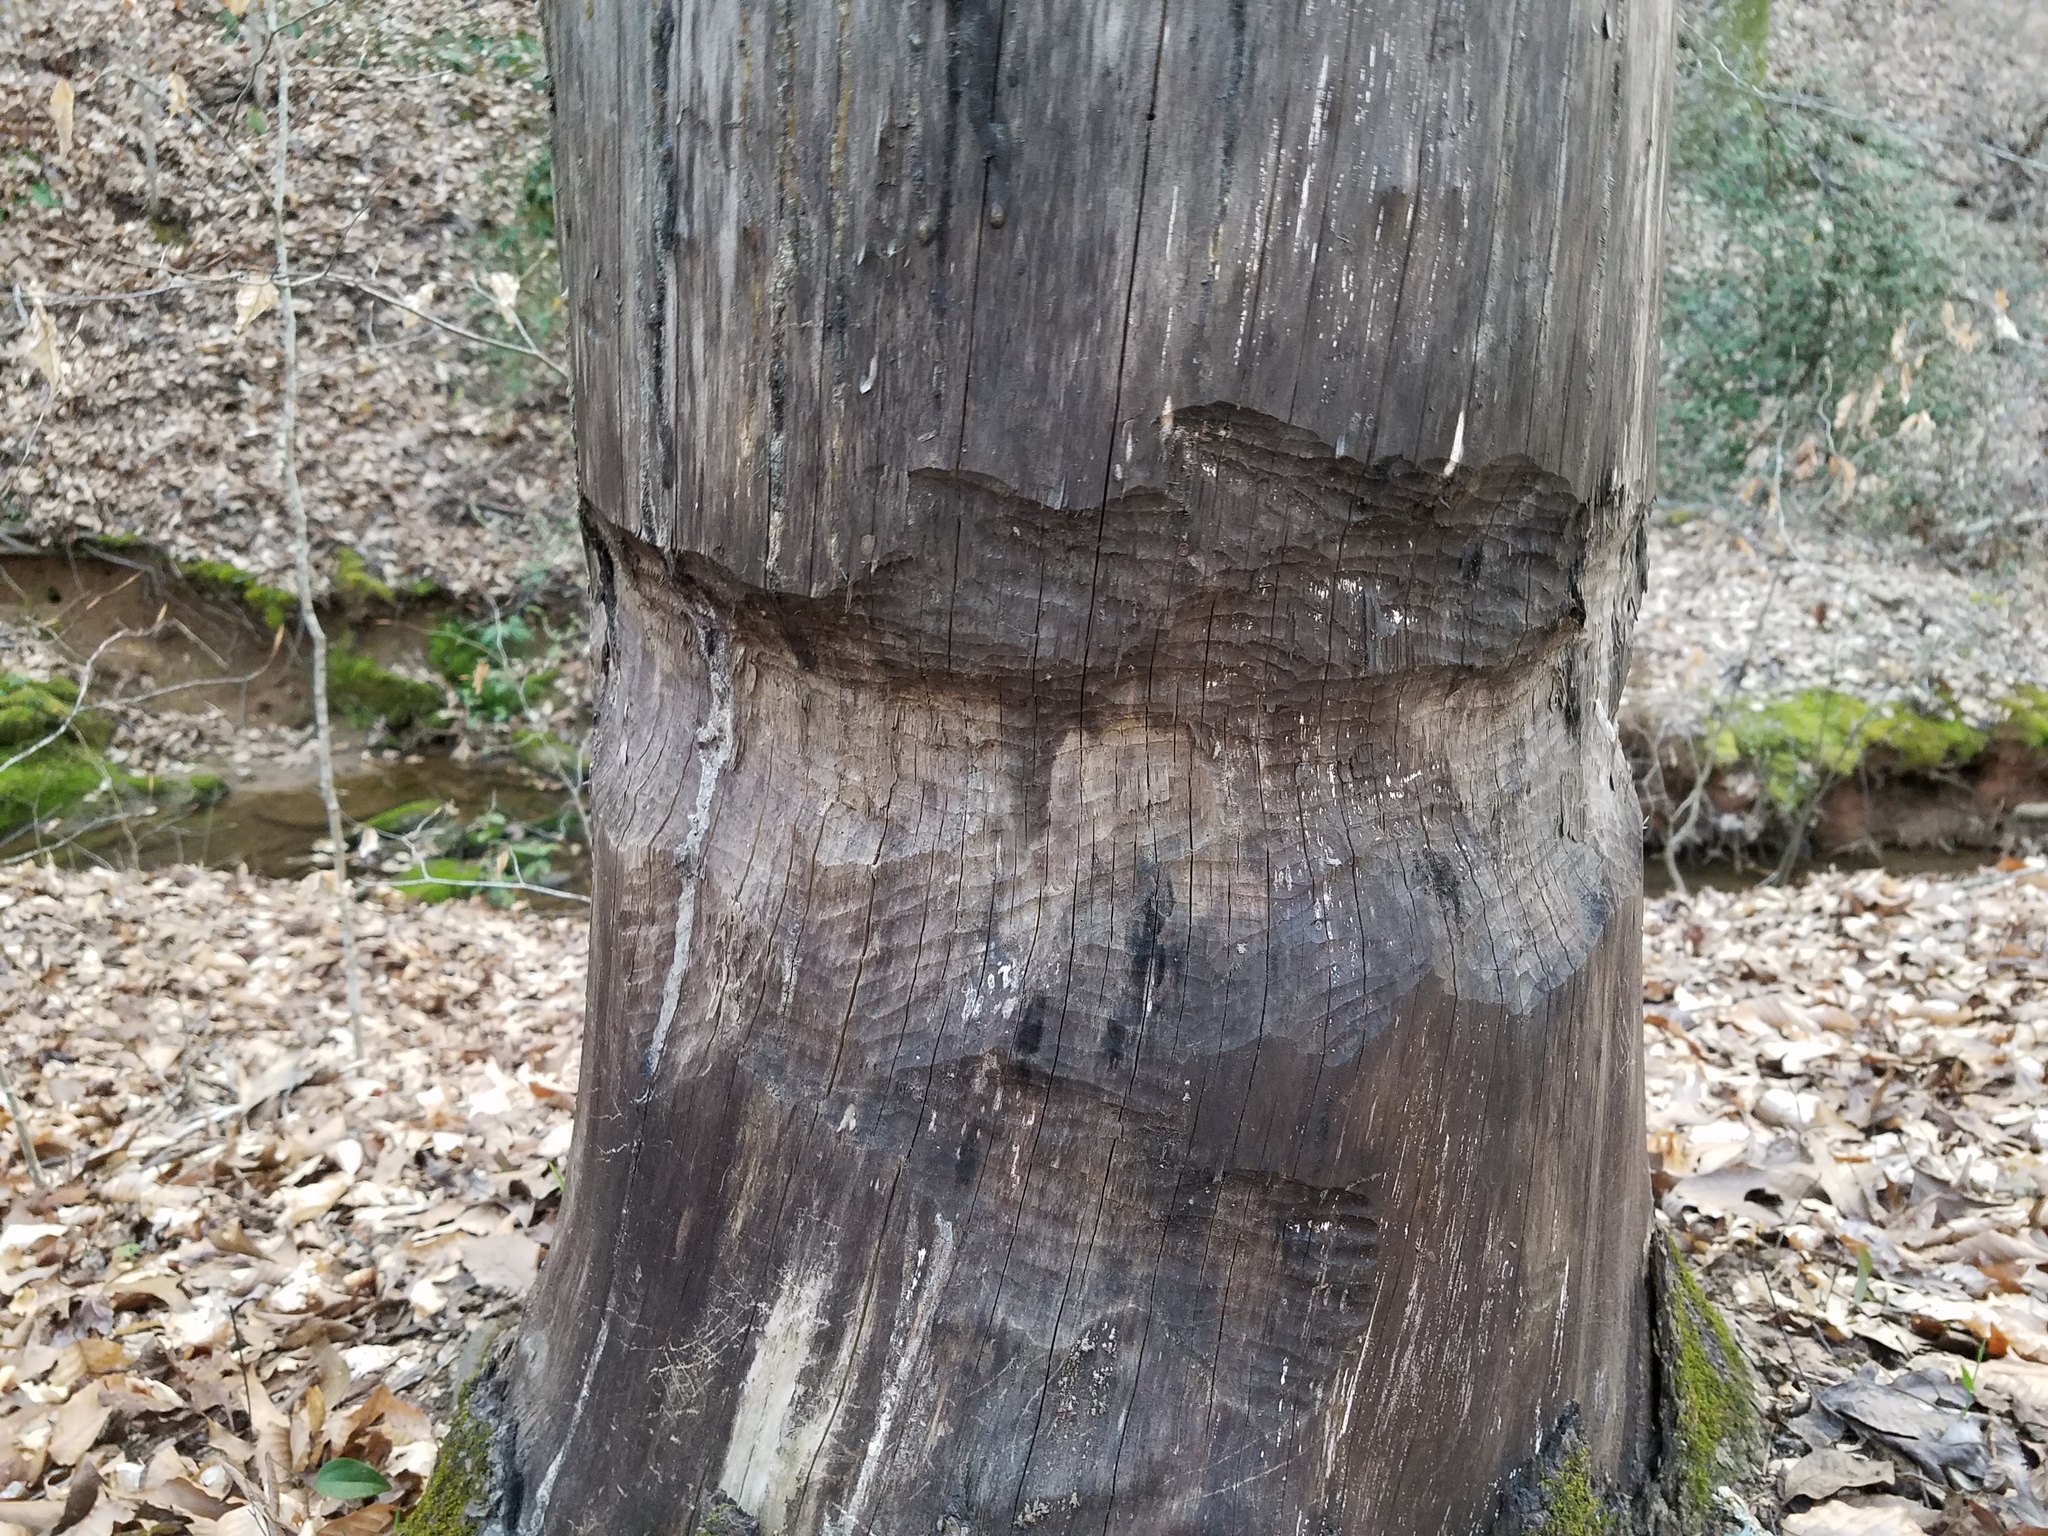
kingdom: Animalia
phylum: Chordata
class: Mammalia
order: Rodentia
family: Castoridae
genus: Castor
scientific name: Castor canadensis
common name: American beaver
